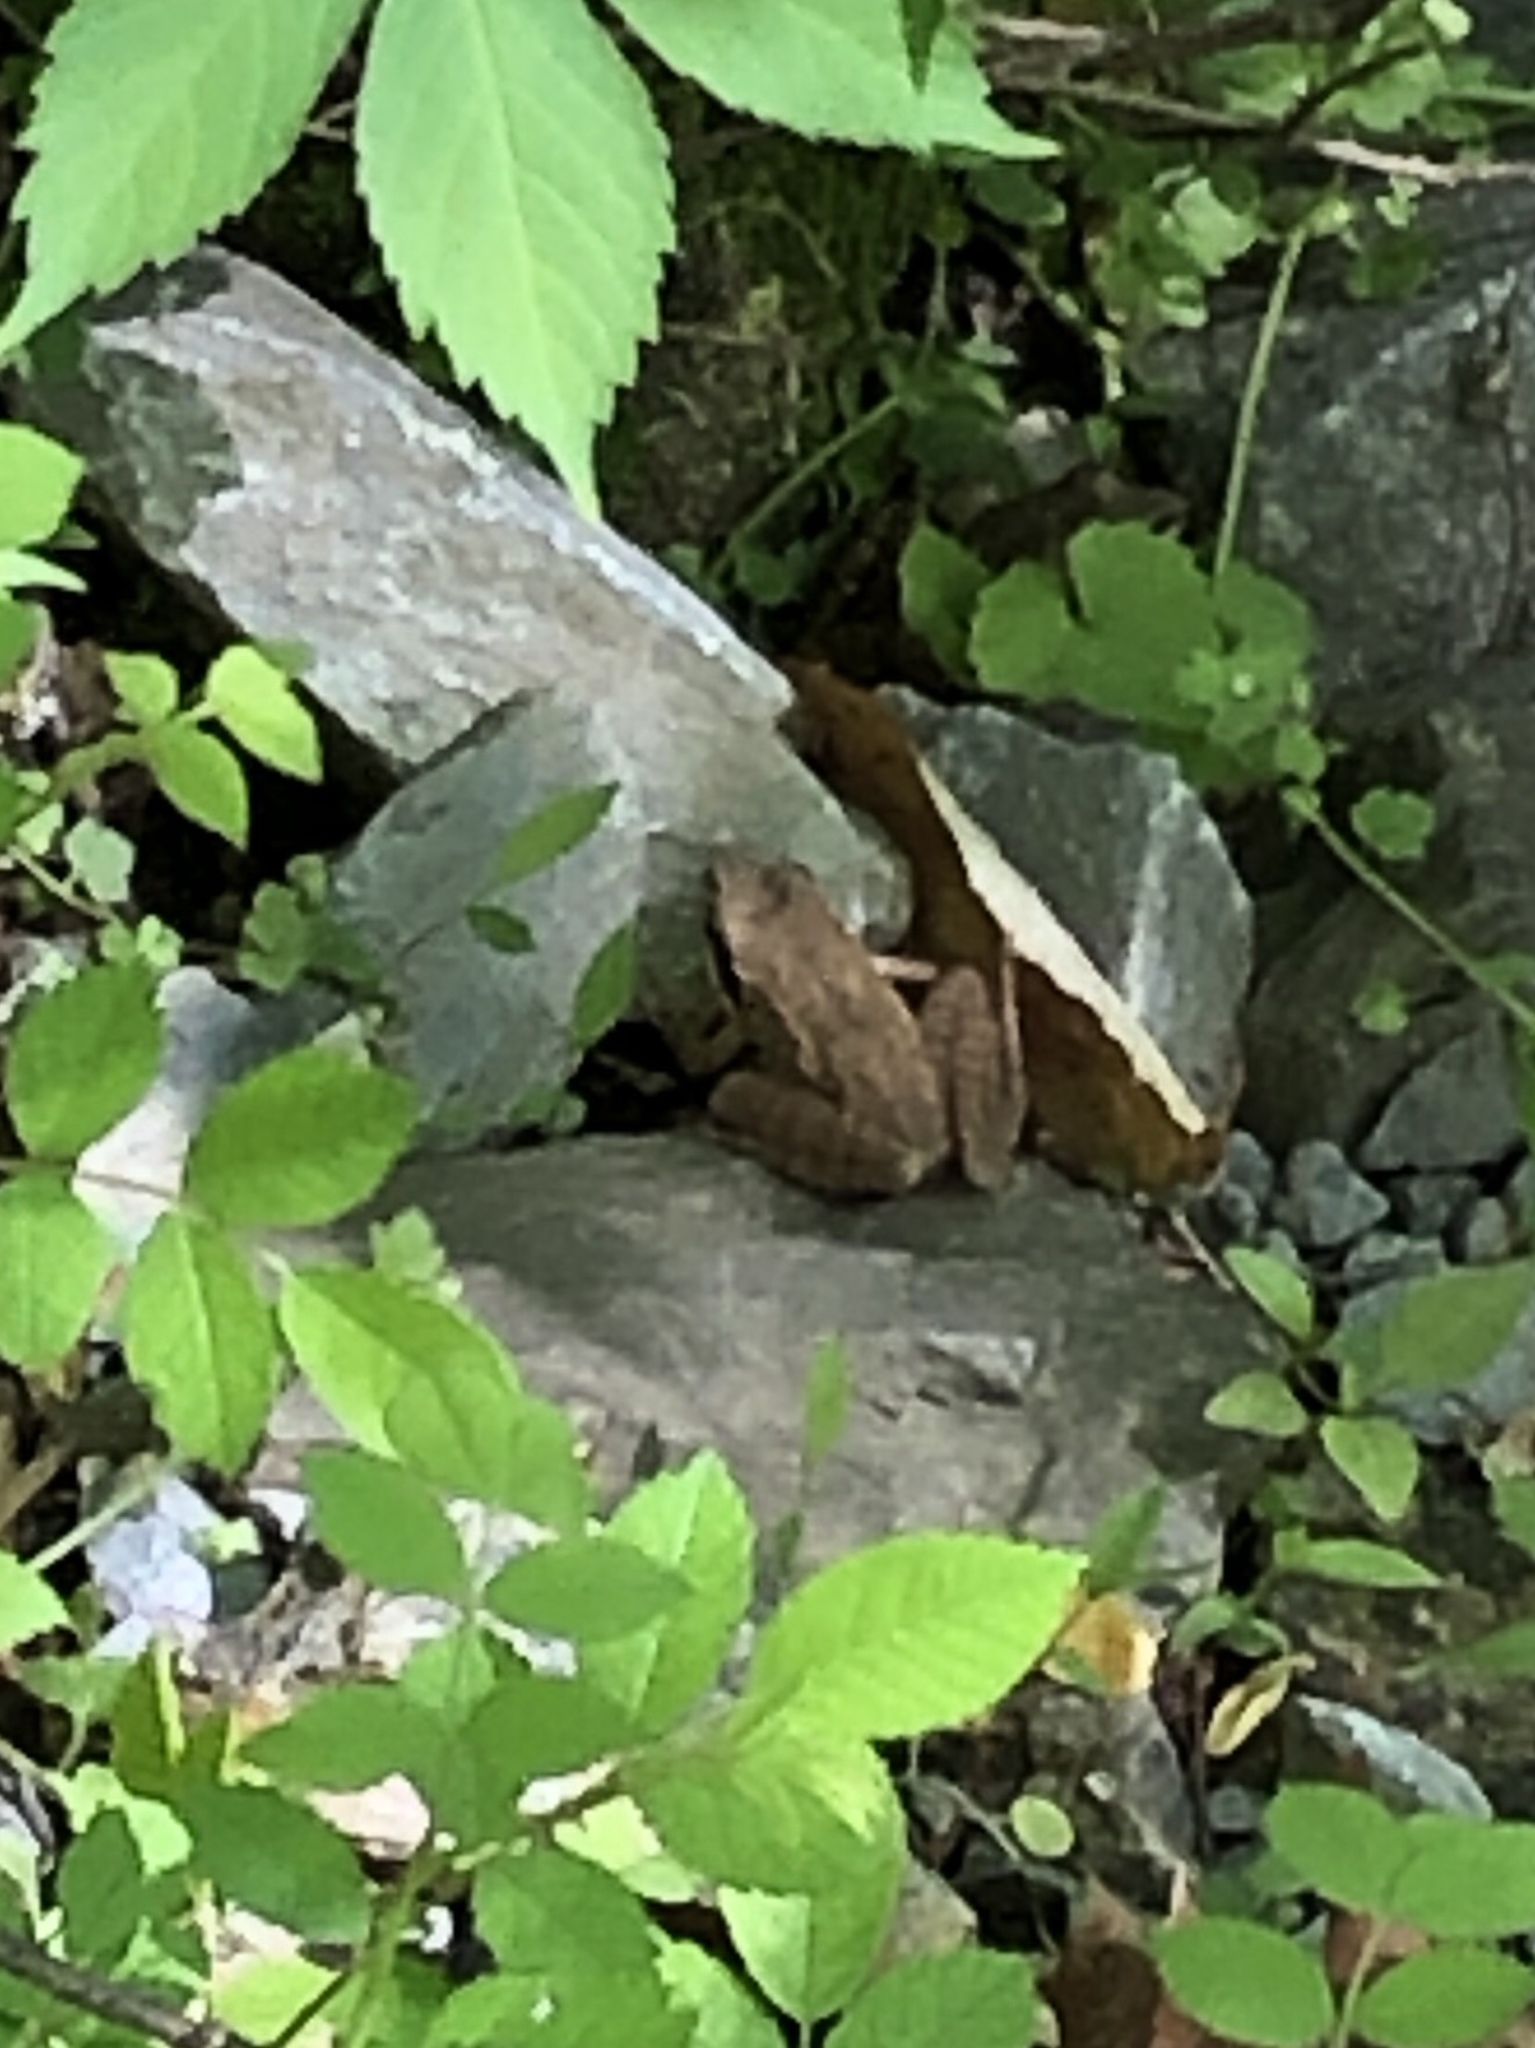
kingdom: Animalia
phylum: Chordata
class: Amphibia
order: Anura
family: Ranidae
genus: Lithobates
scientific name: Lithobates sylvaticus
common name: Wood frog
